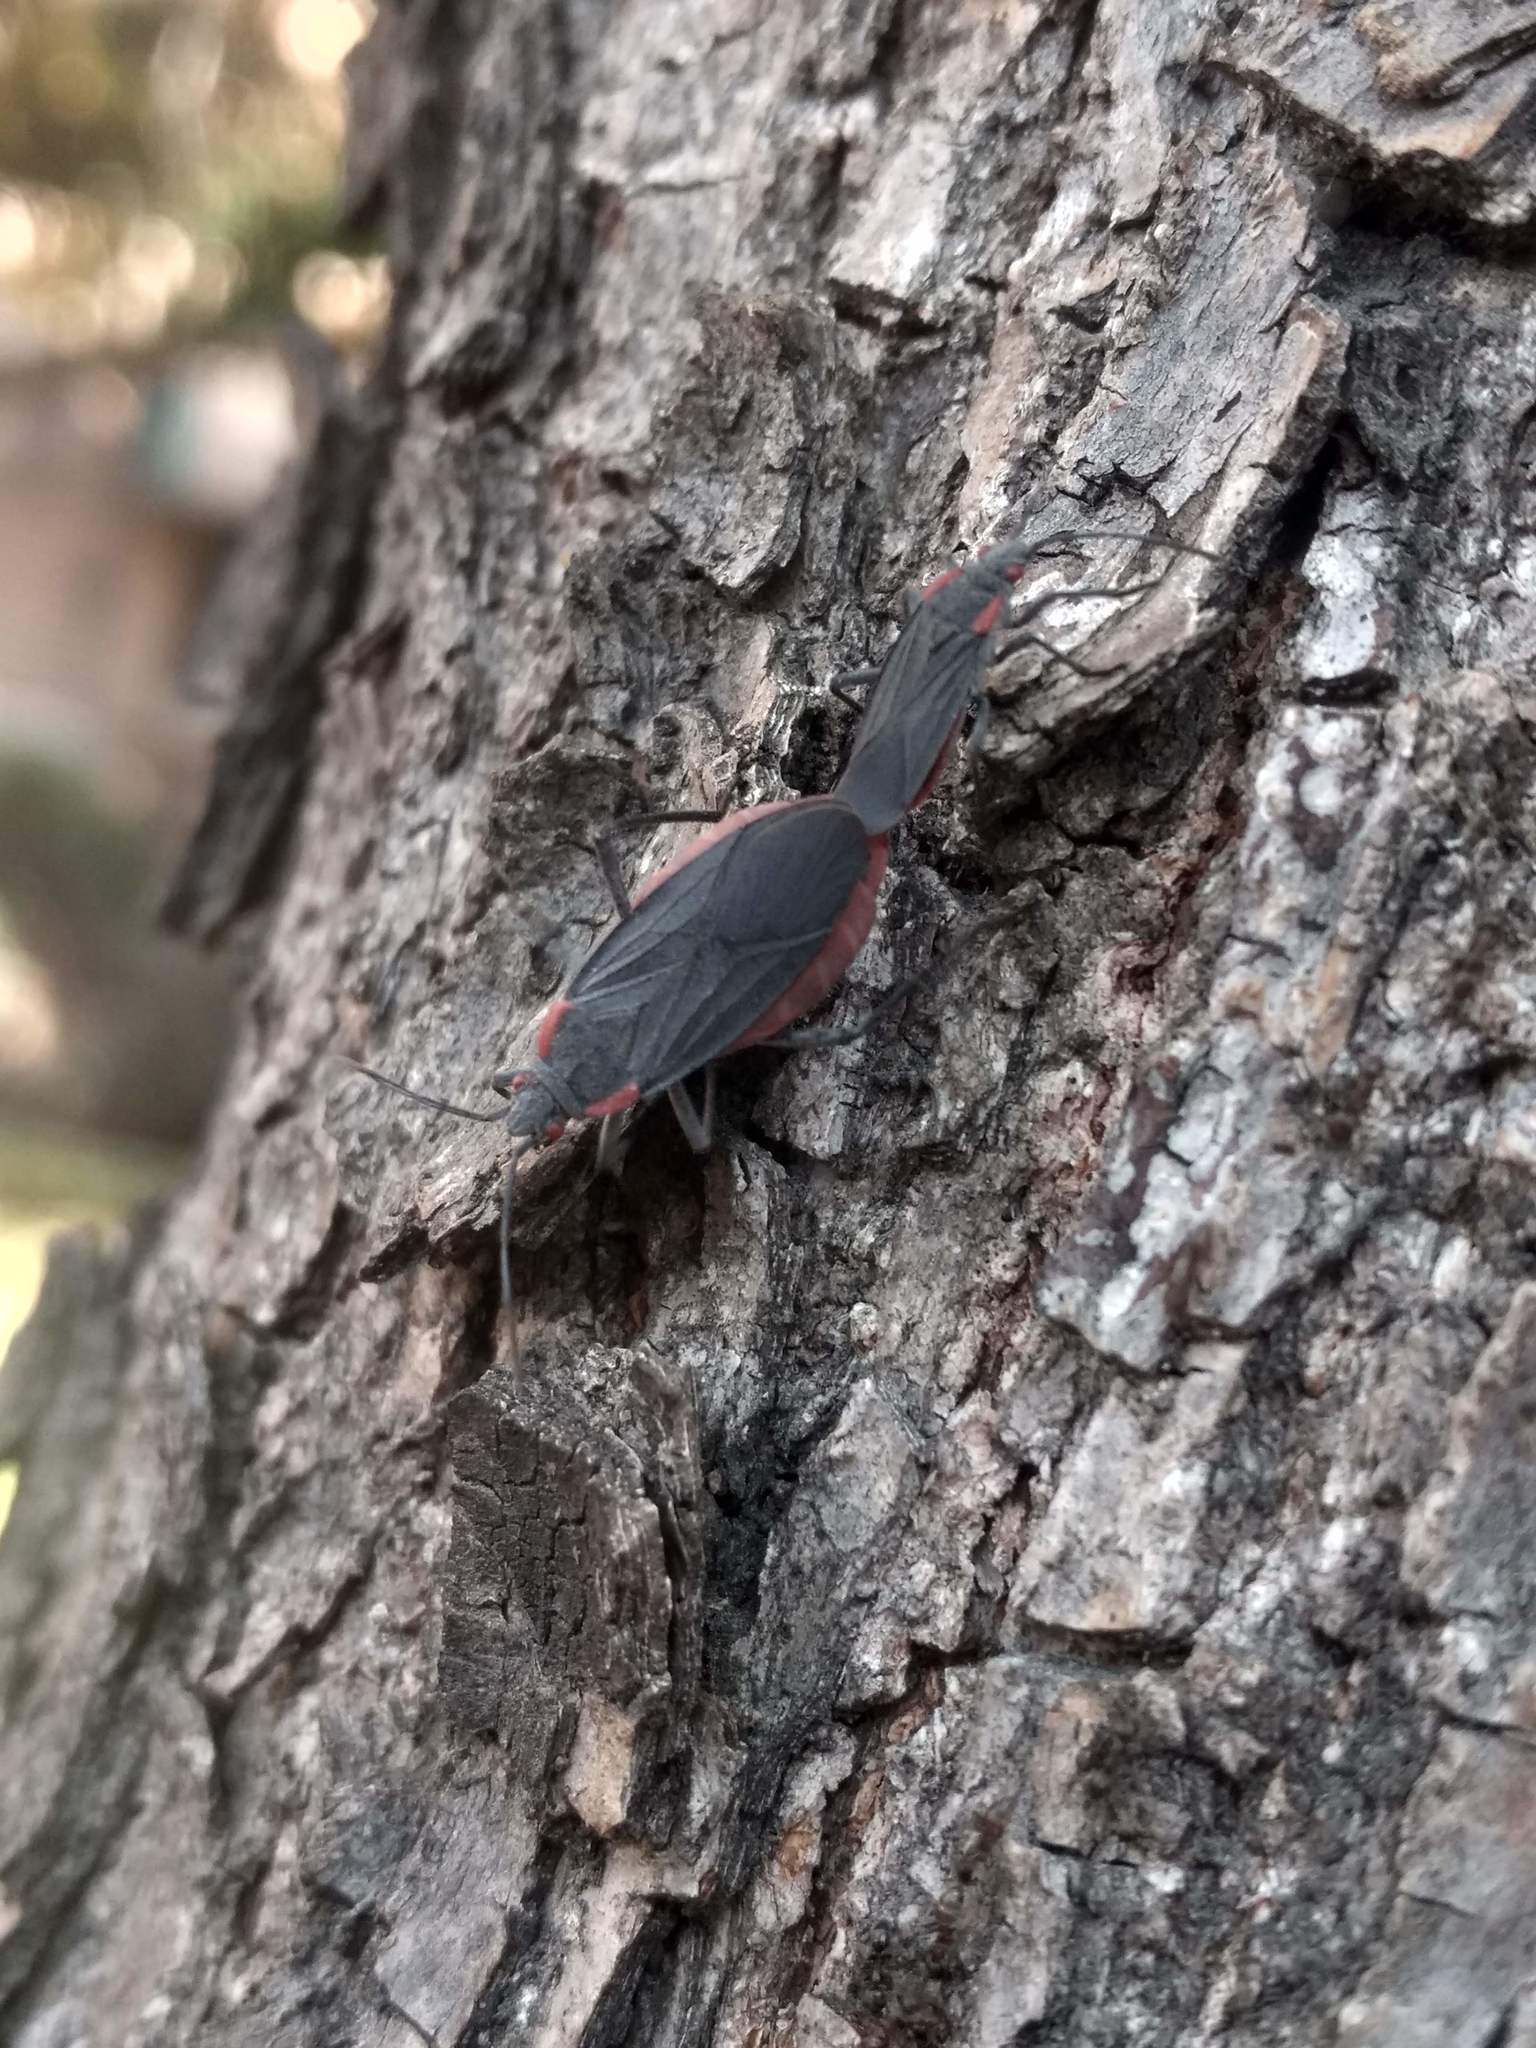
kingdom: Animalia
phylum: Arthropoda
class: Insecta
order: Hemiptera
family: Rhopalidae
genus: Jadera
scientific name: Jadera haematoloma
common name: Red-shouldered bug
